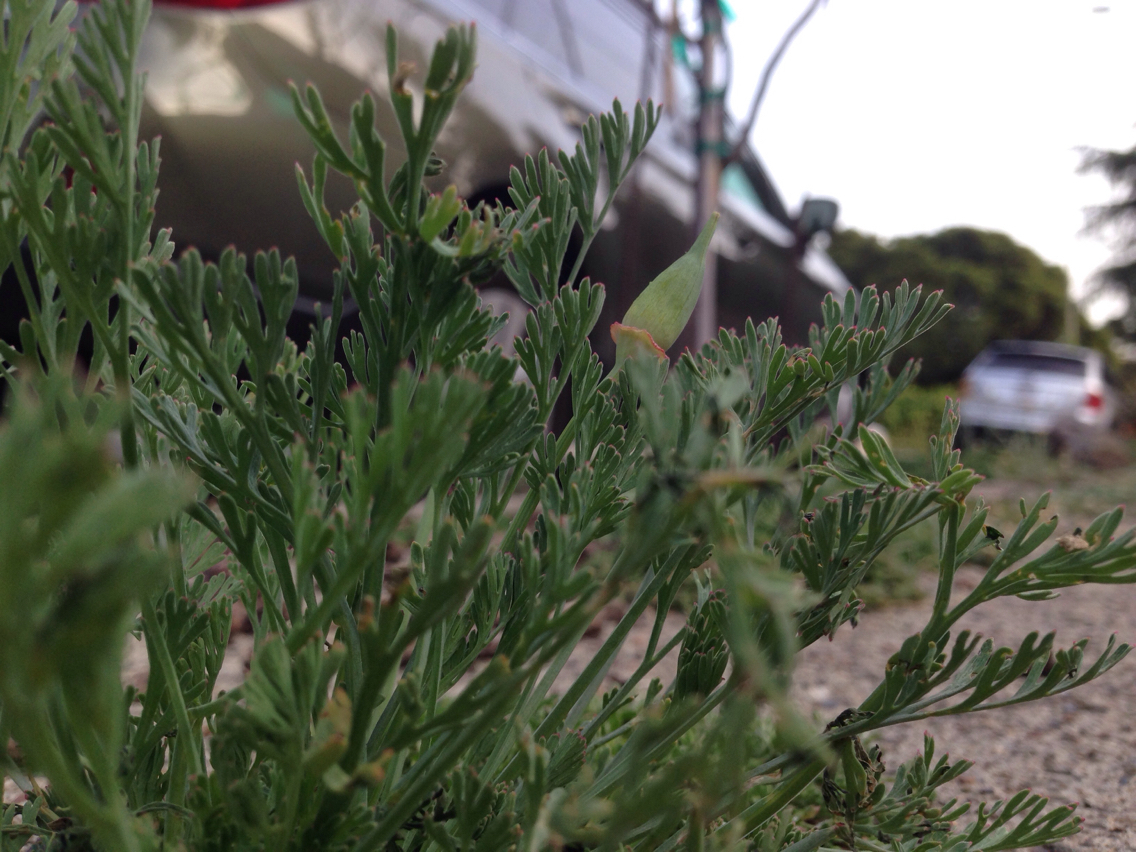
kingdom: Plantae
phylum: Tracheophyta
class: Magnoliopsida
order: Ranunculales
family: Papaveraceae
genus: Eschscholzia
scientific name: Eschscholzia californica
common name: California poppy
